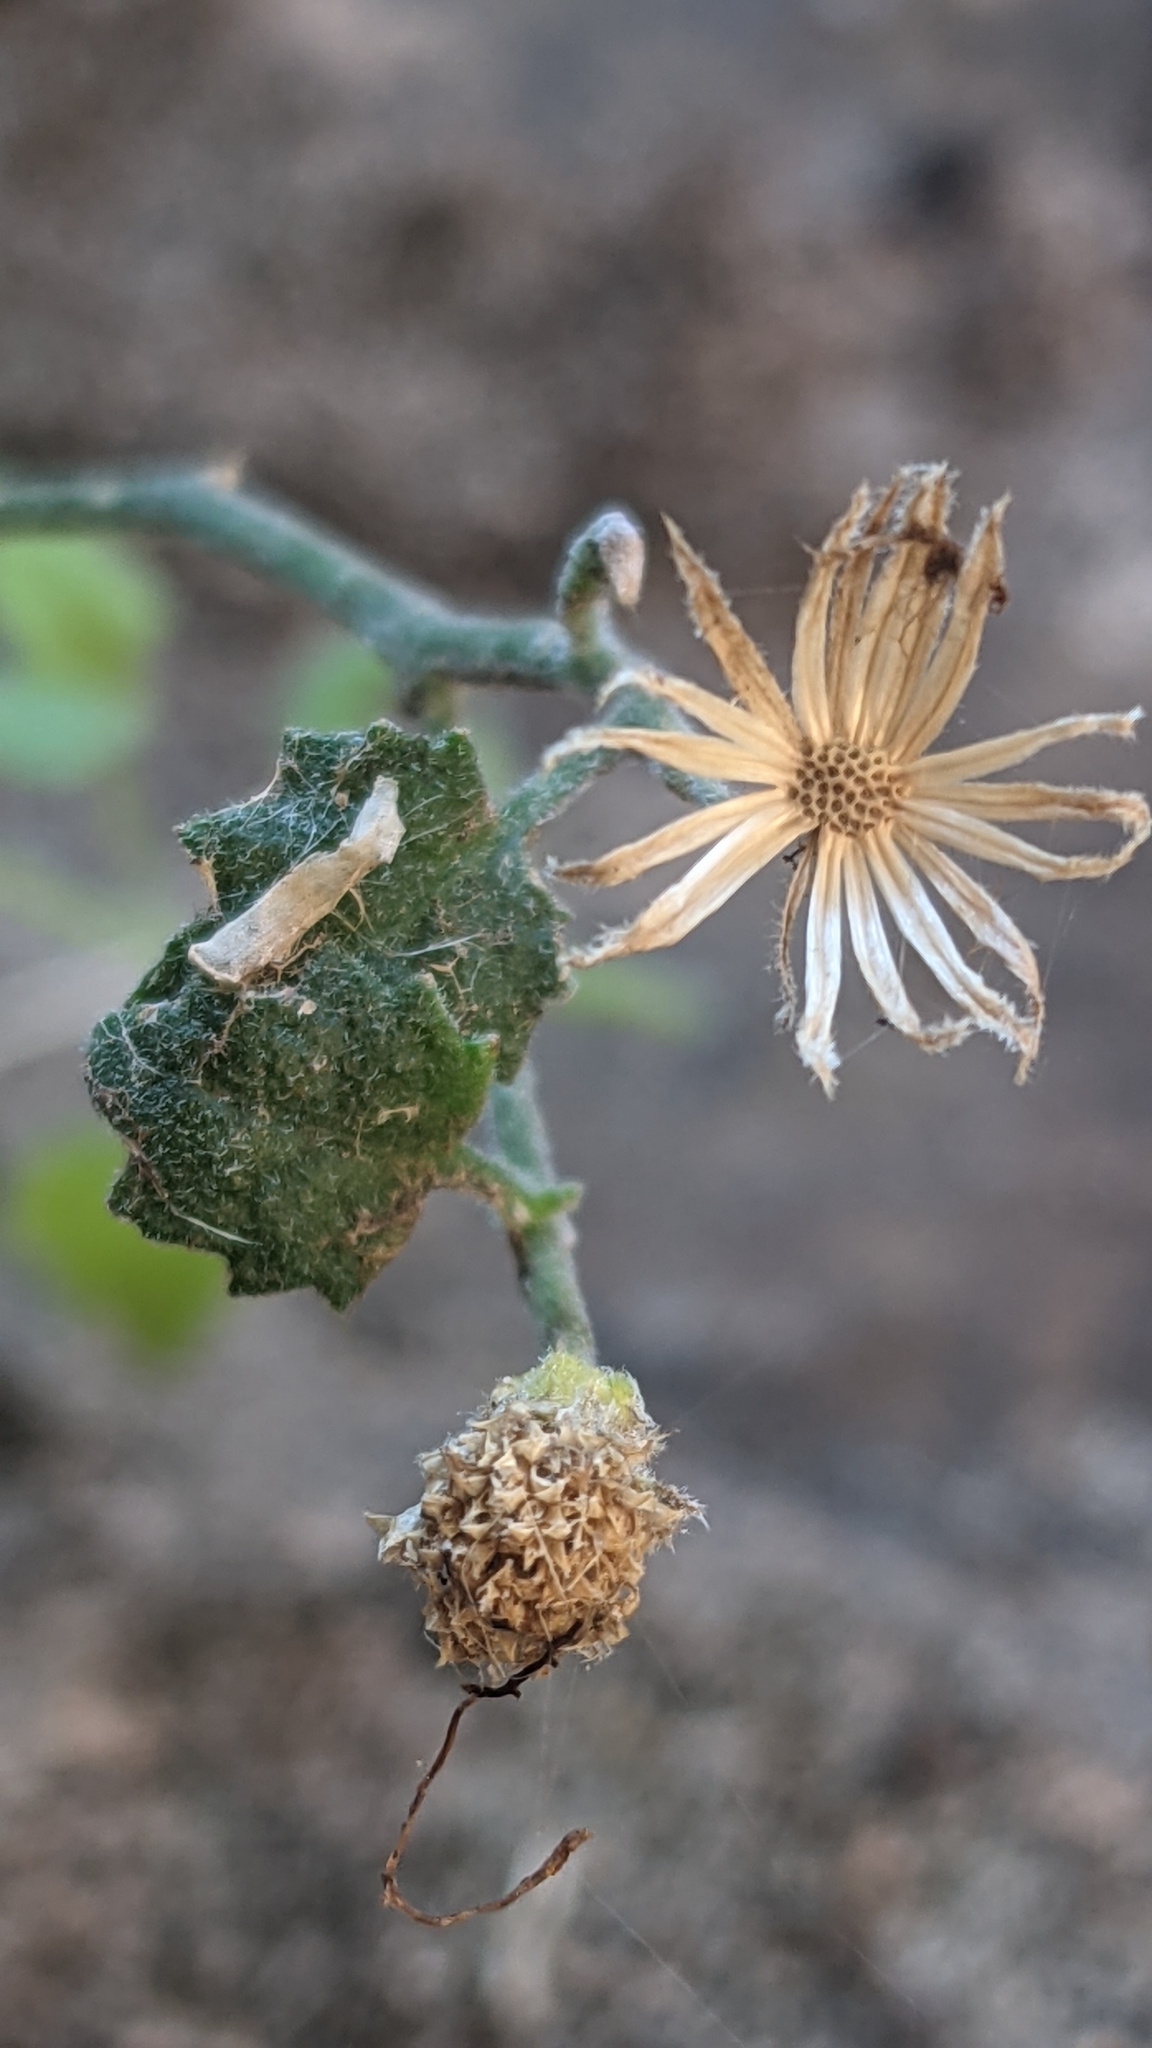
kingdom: Plantae
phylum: Tracheophyta
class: Magnoliopsida
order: Asterales
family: Asteraceae
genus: Laphamia
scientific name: Laphamia sanchezii
